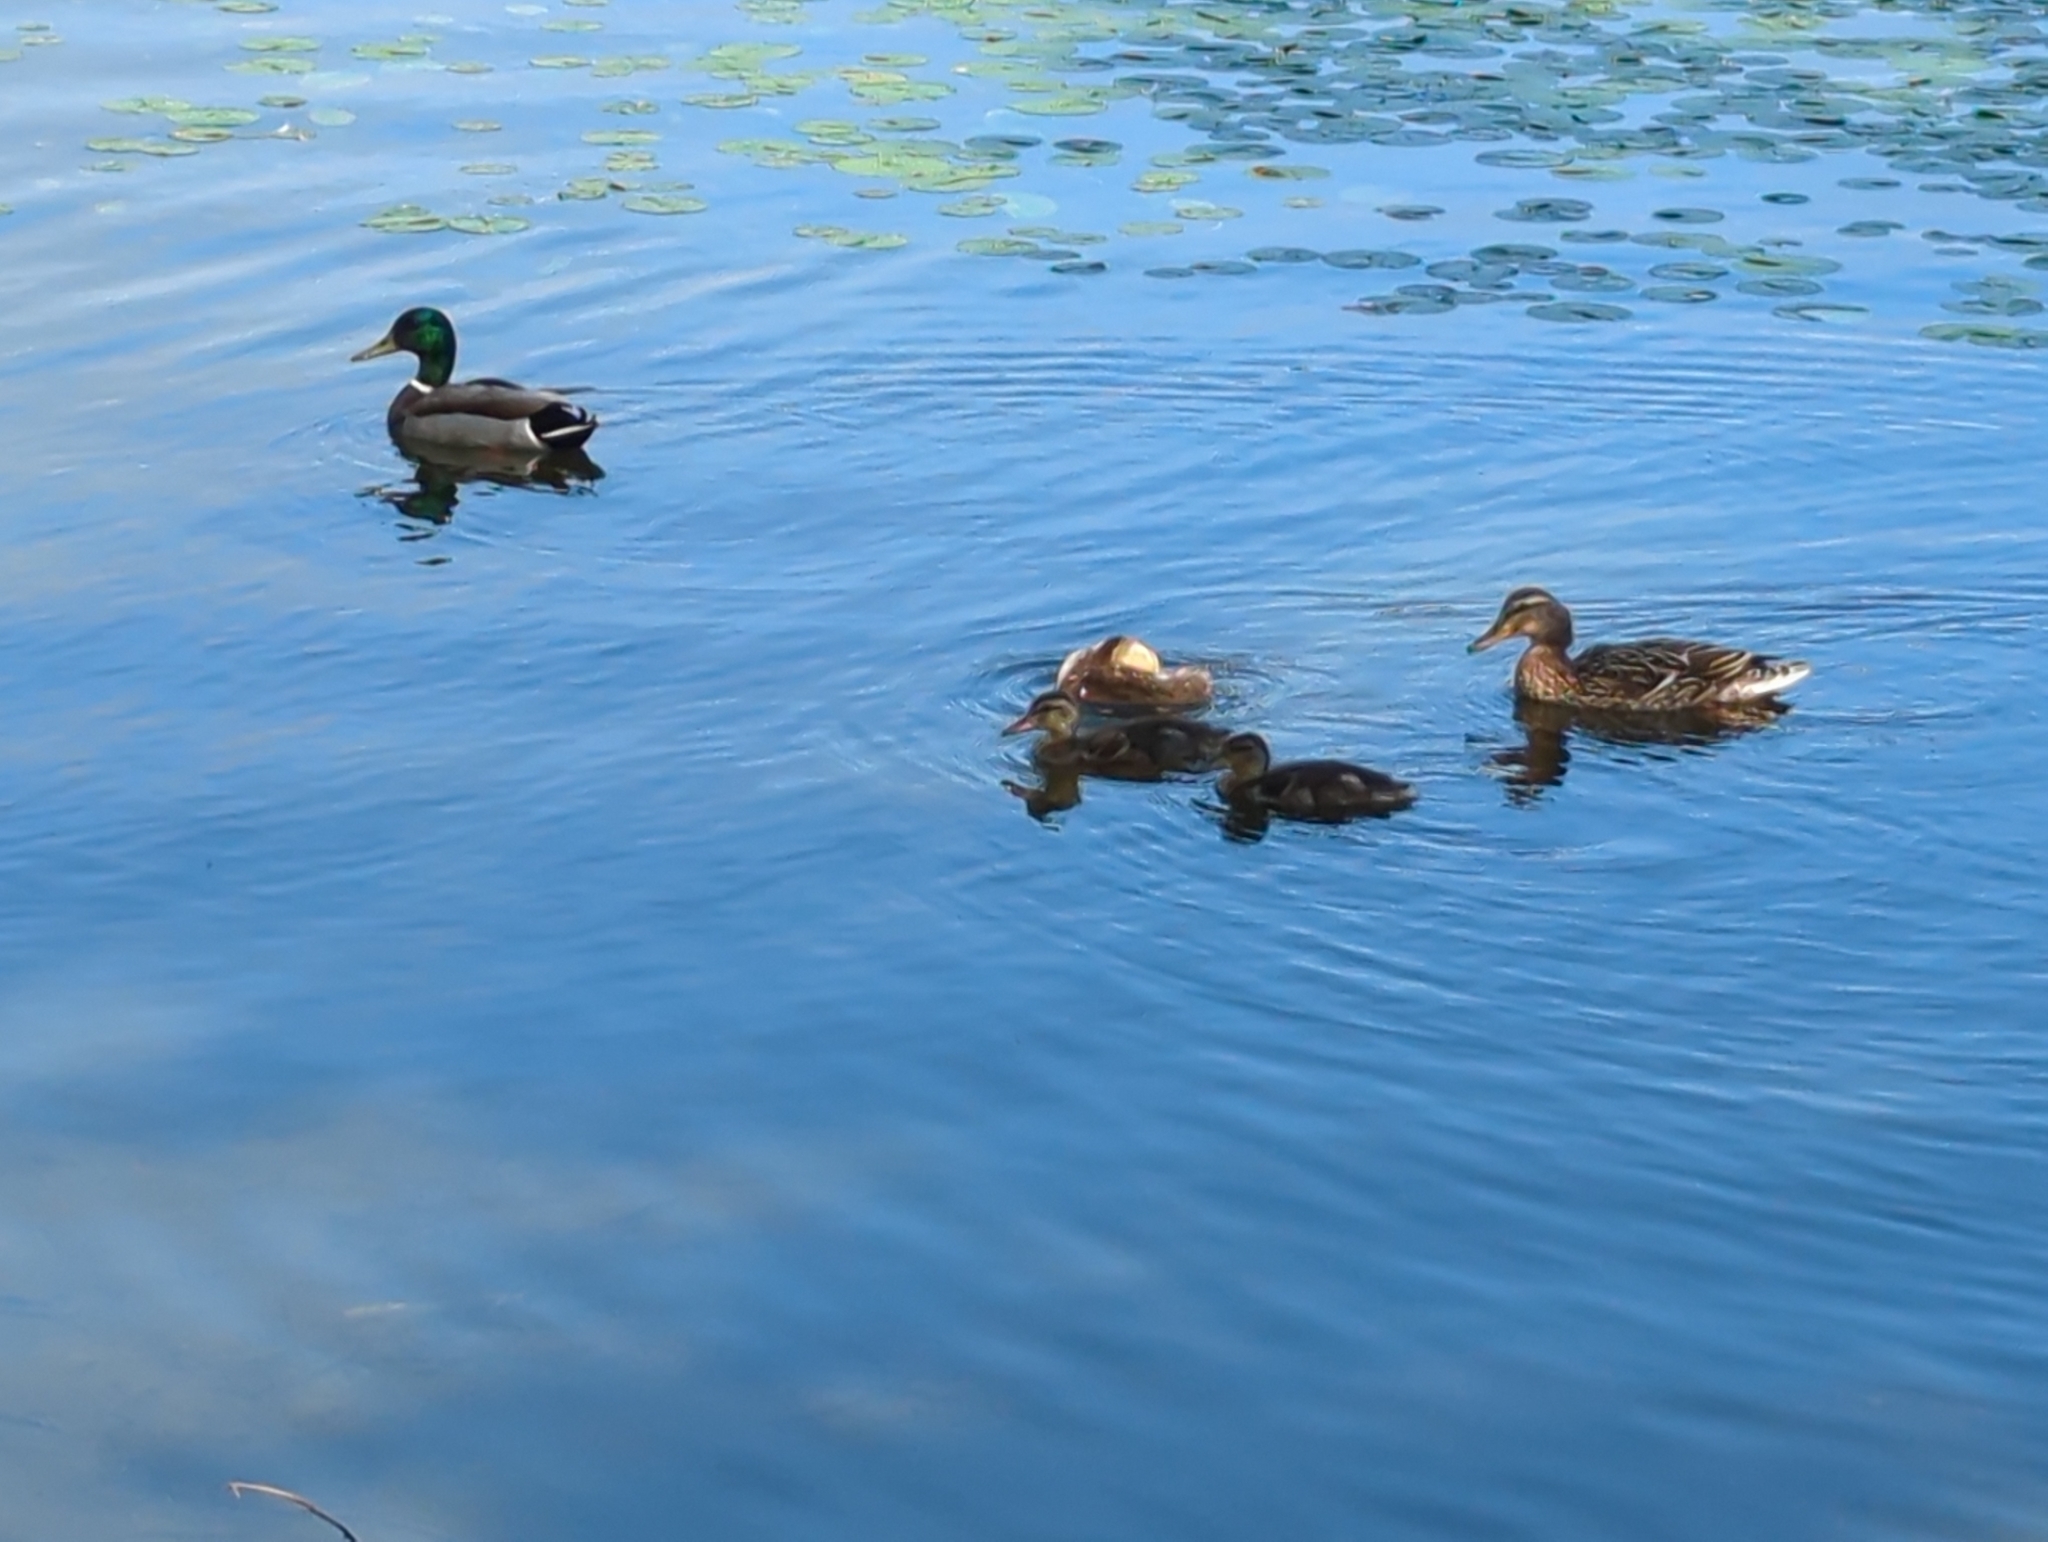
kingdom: Animalia
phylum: Chordata
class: Aves
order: Anseriformes
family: Anatidae
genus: Anas
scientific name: Anas platyrhynchos
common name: Mallard
